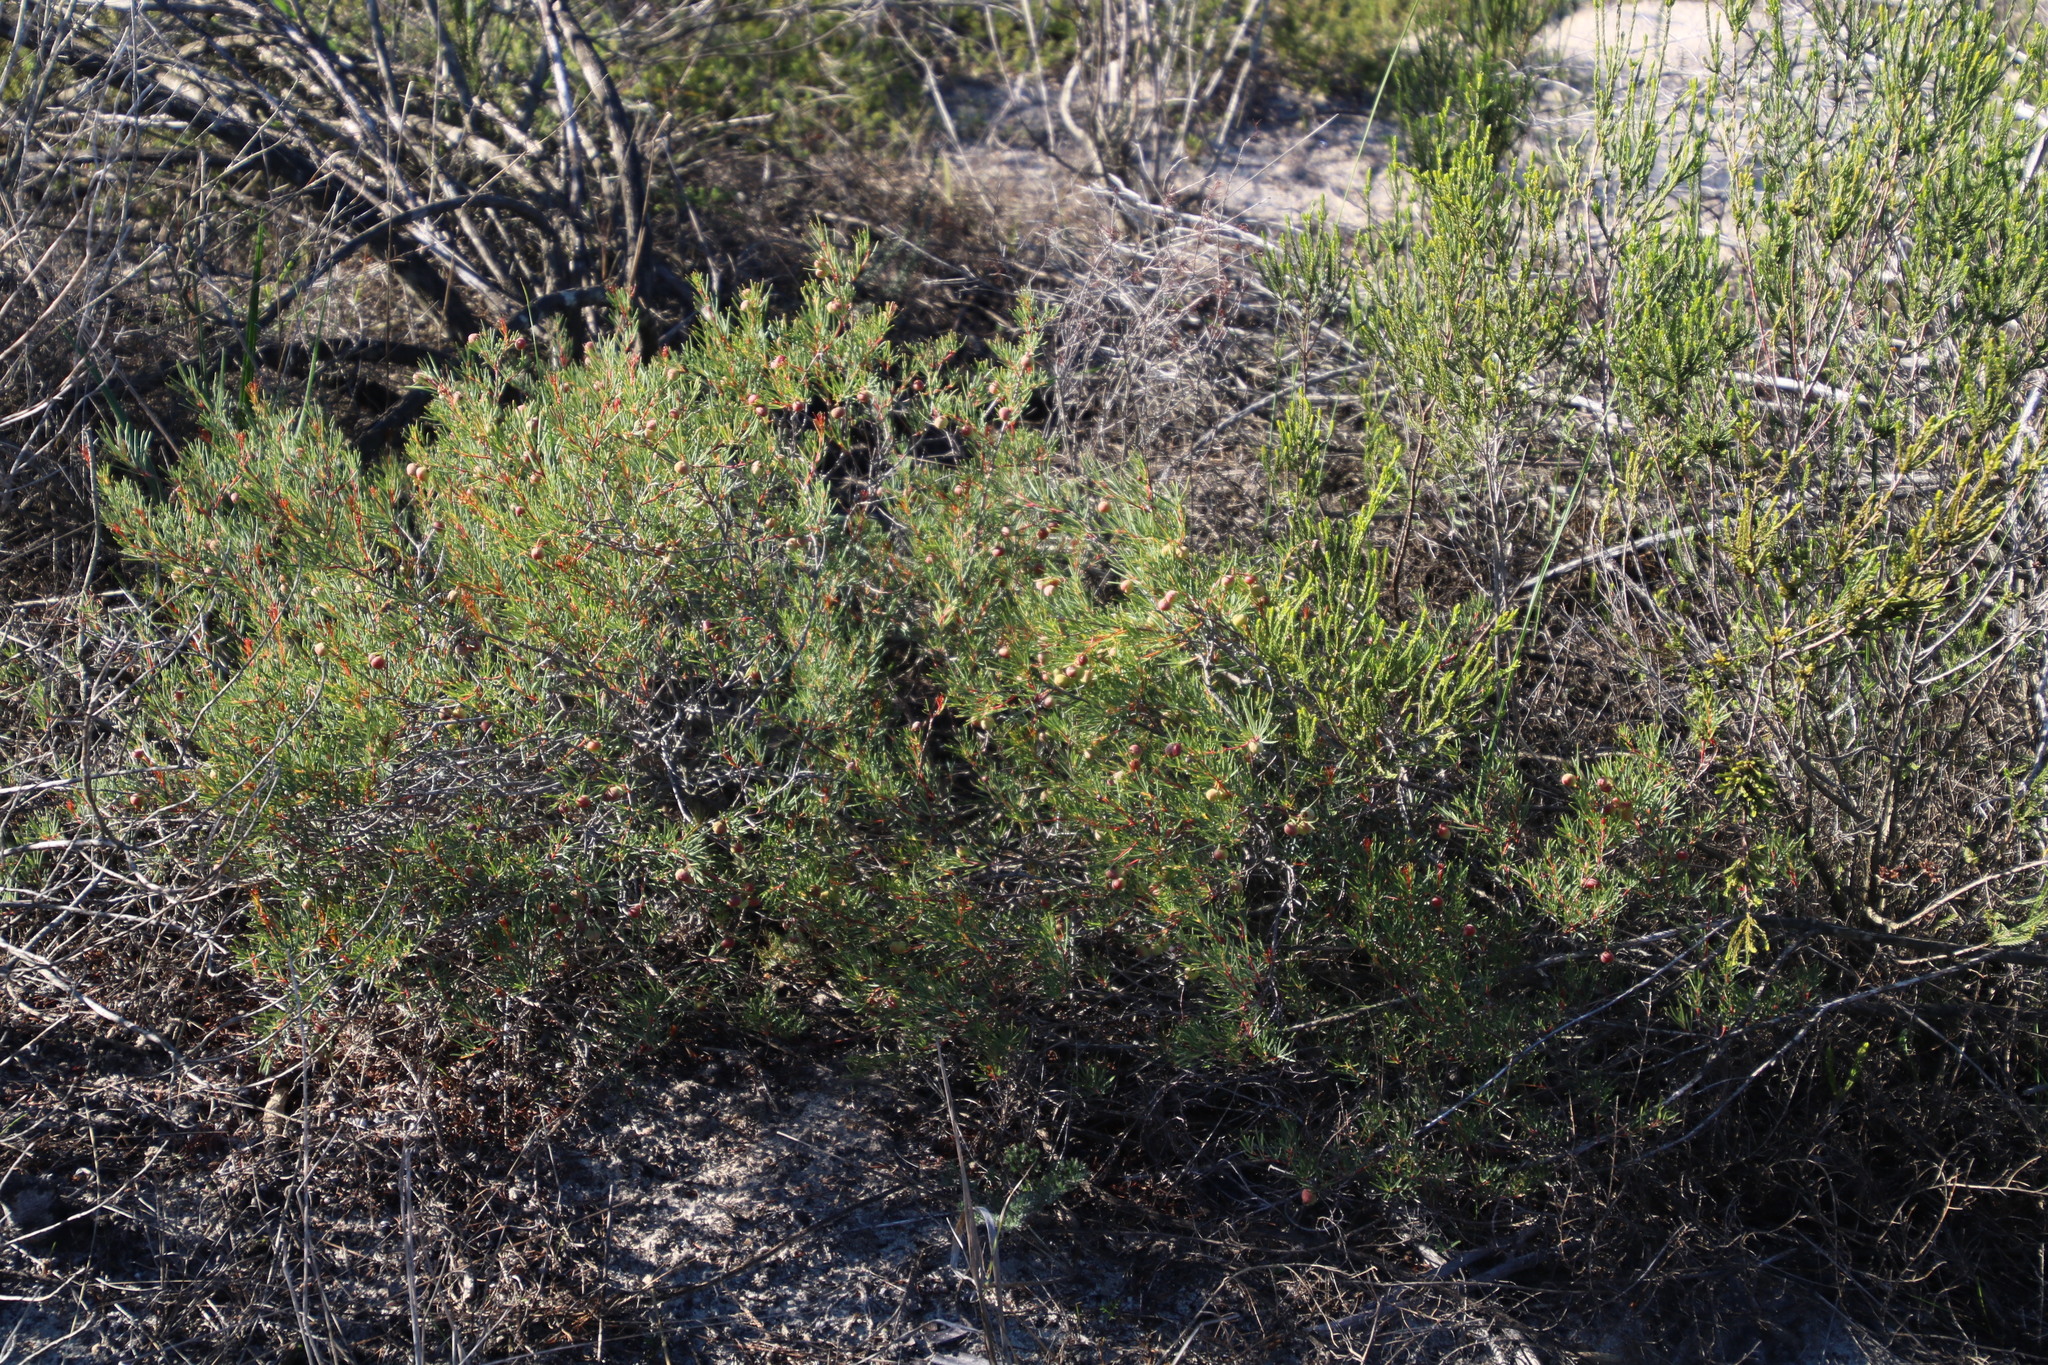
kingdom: Plantae
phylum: Tracheophyta
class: Magnoliopsida
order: Sapindales
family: Anacardiaceae
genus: Searsia
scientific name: Searsia rosmarinifolia
